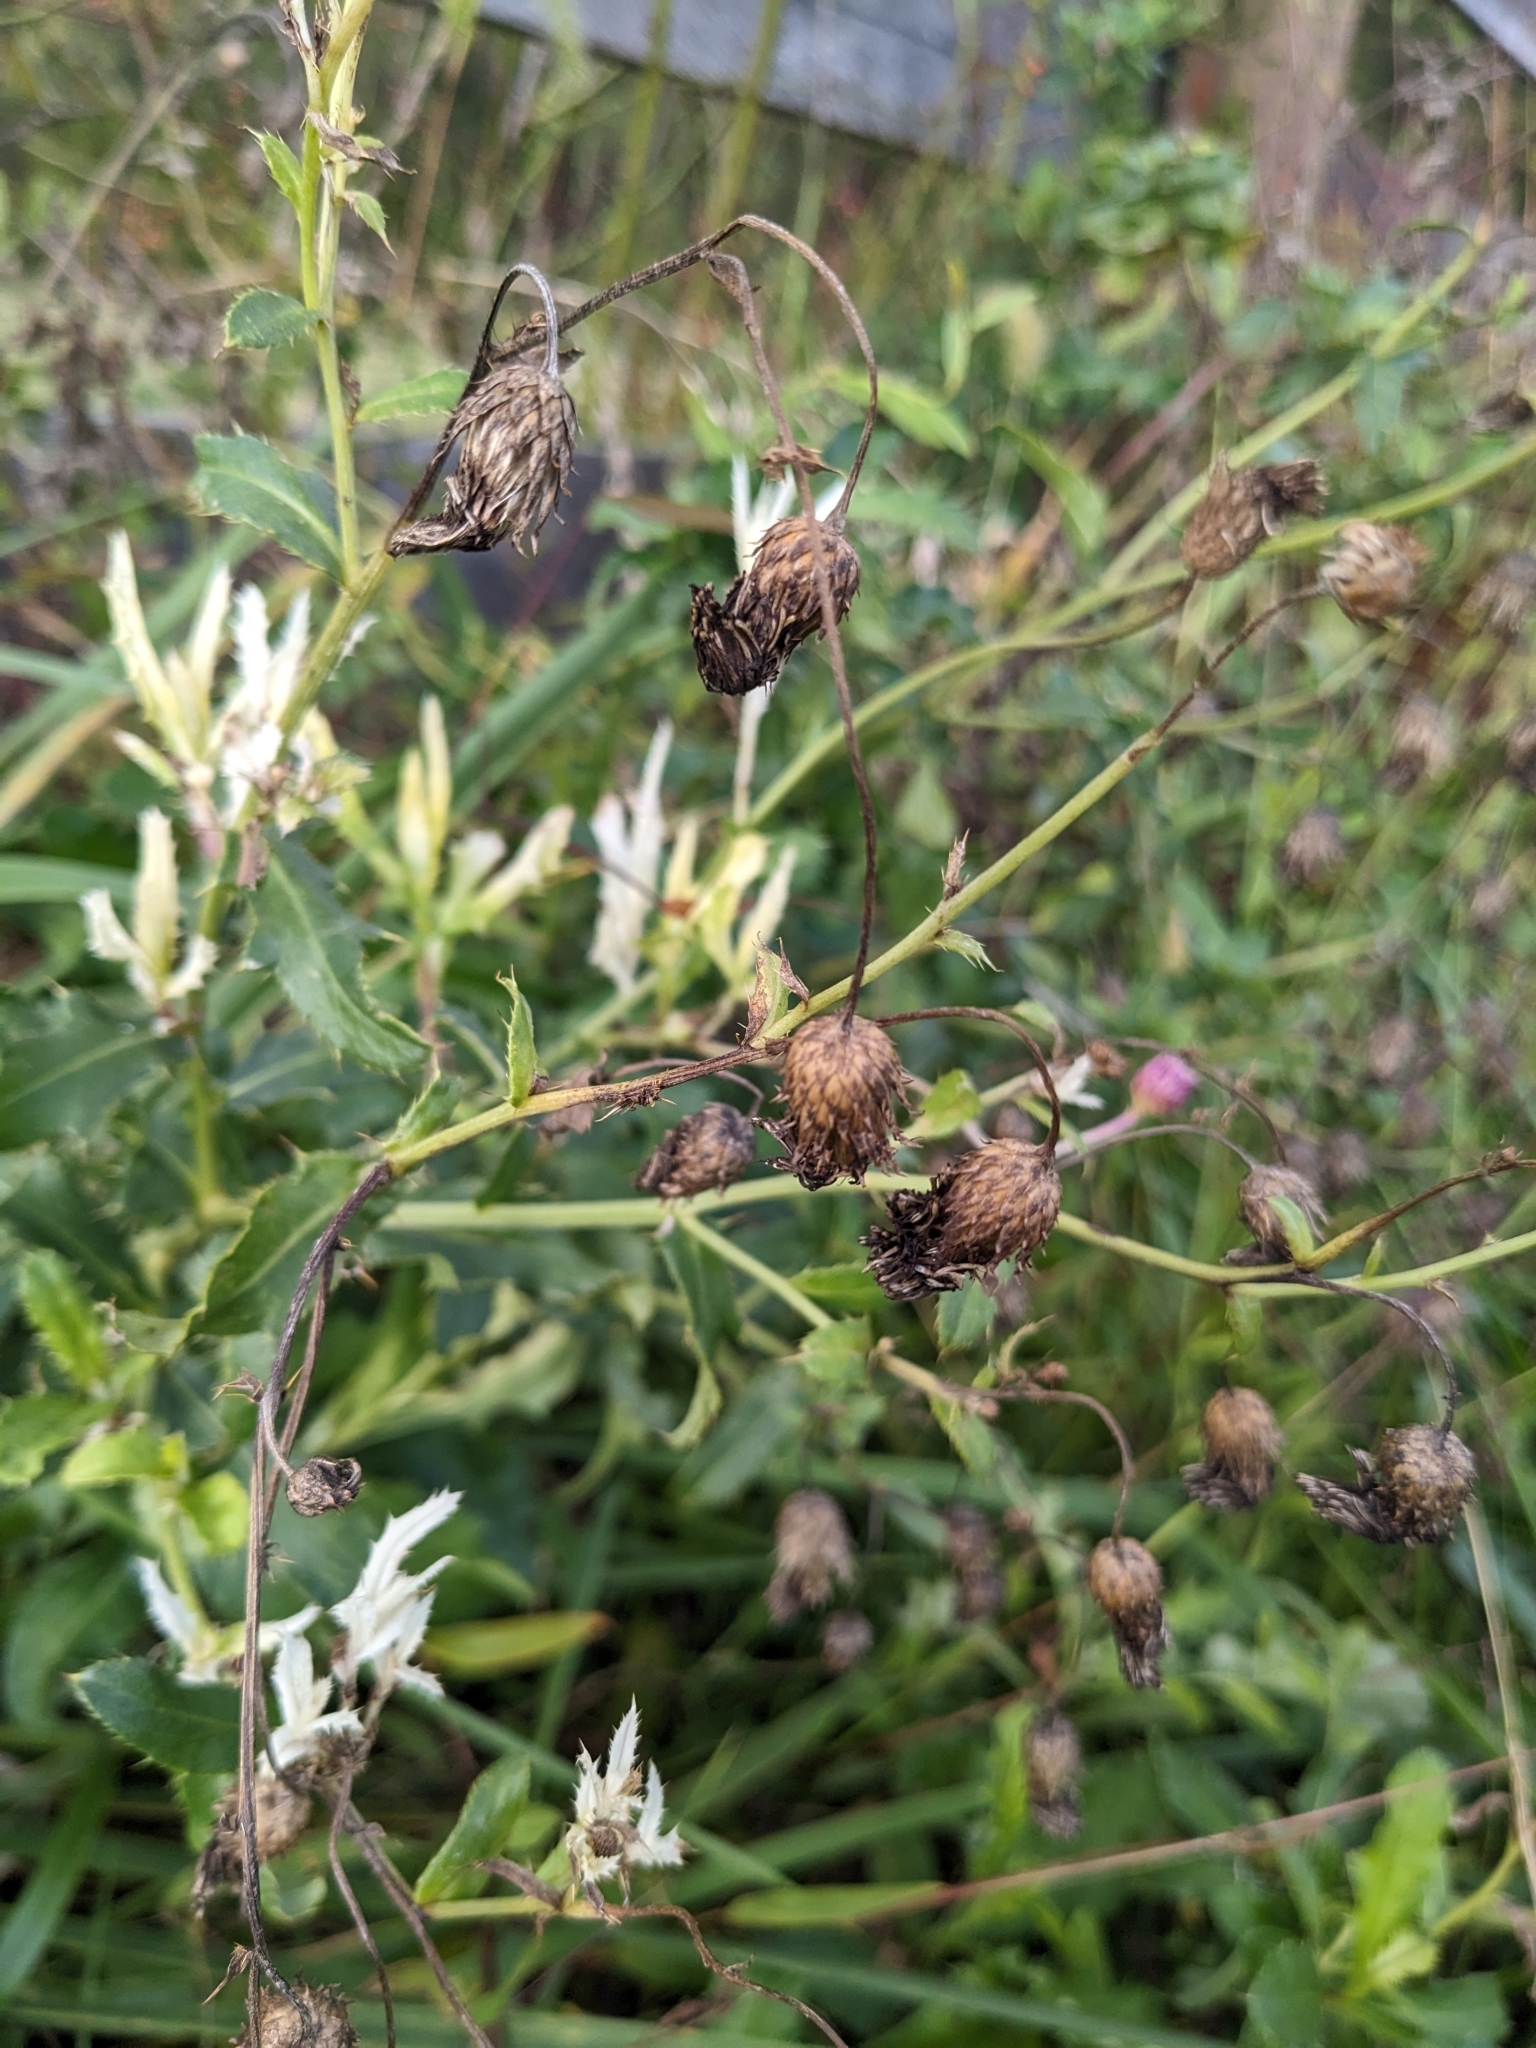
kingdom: Bacteria
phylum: Proteobacteria
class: Gammaproteobacteria
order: Pseudomonadales
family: Pseudomonadaceae
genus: Pseudomonas
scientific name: Pseudomonas syringae
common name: Bacterial speck
